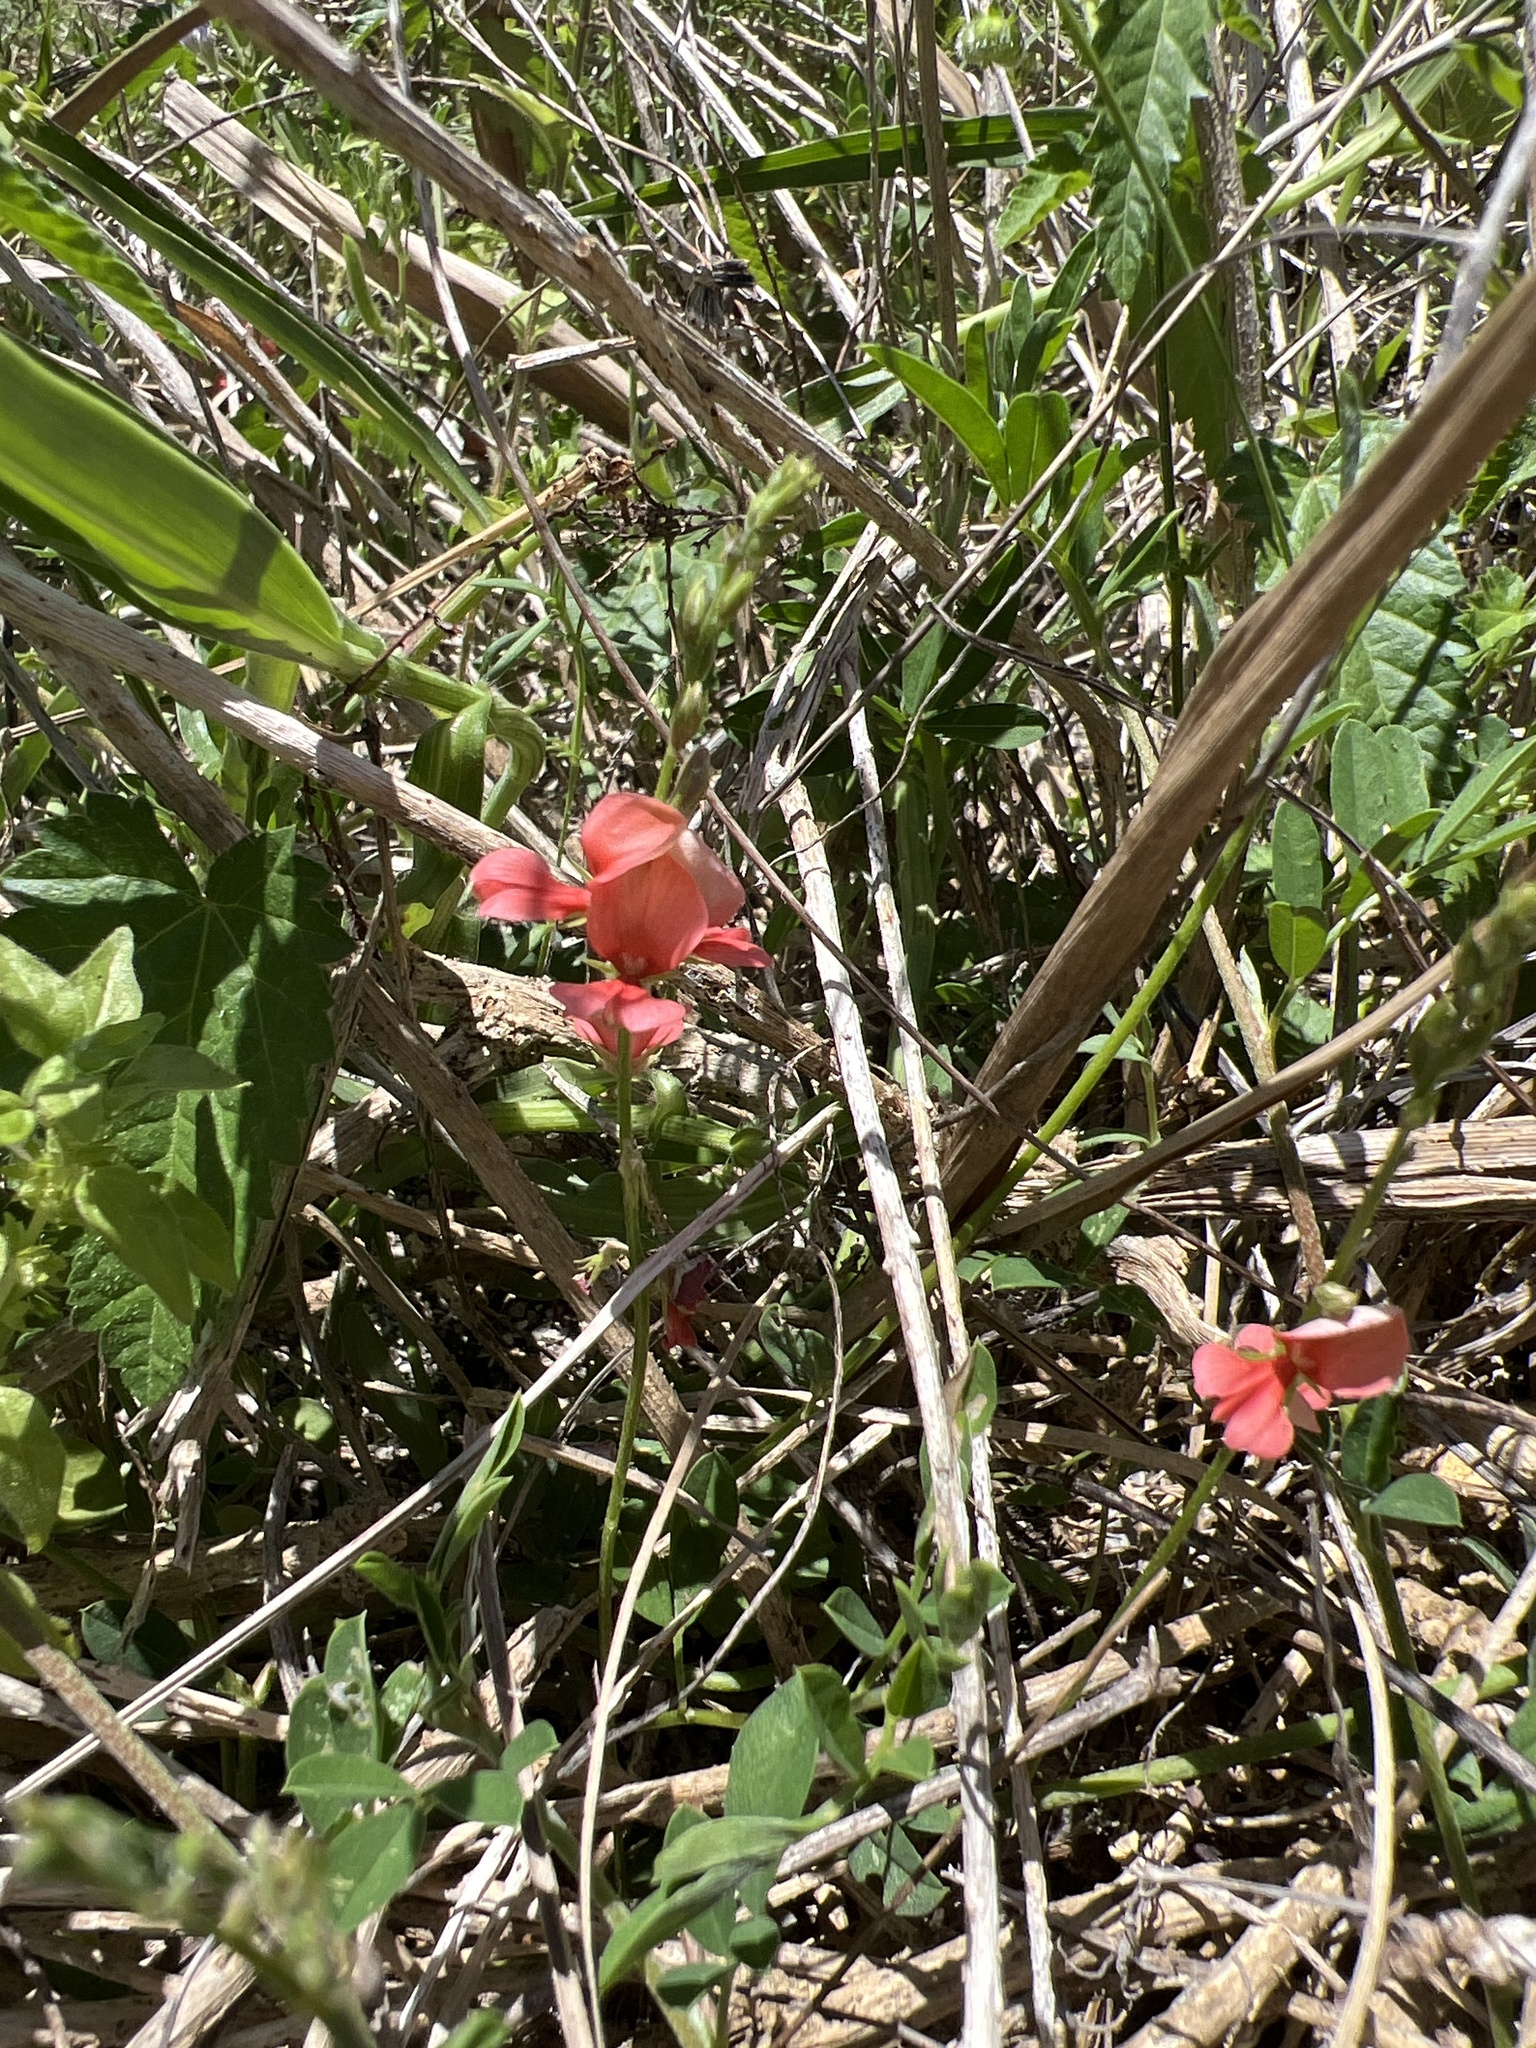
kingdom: Plantae
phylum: Tracheophyta
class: Magnoliopsida
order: Fabales
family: Fabaceae
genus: Indigofera
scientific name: Indigofera miniata
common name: Coast indigo
